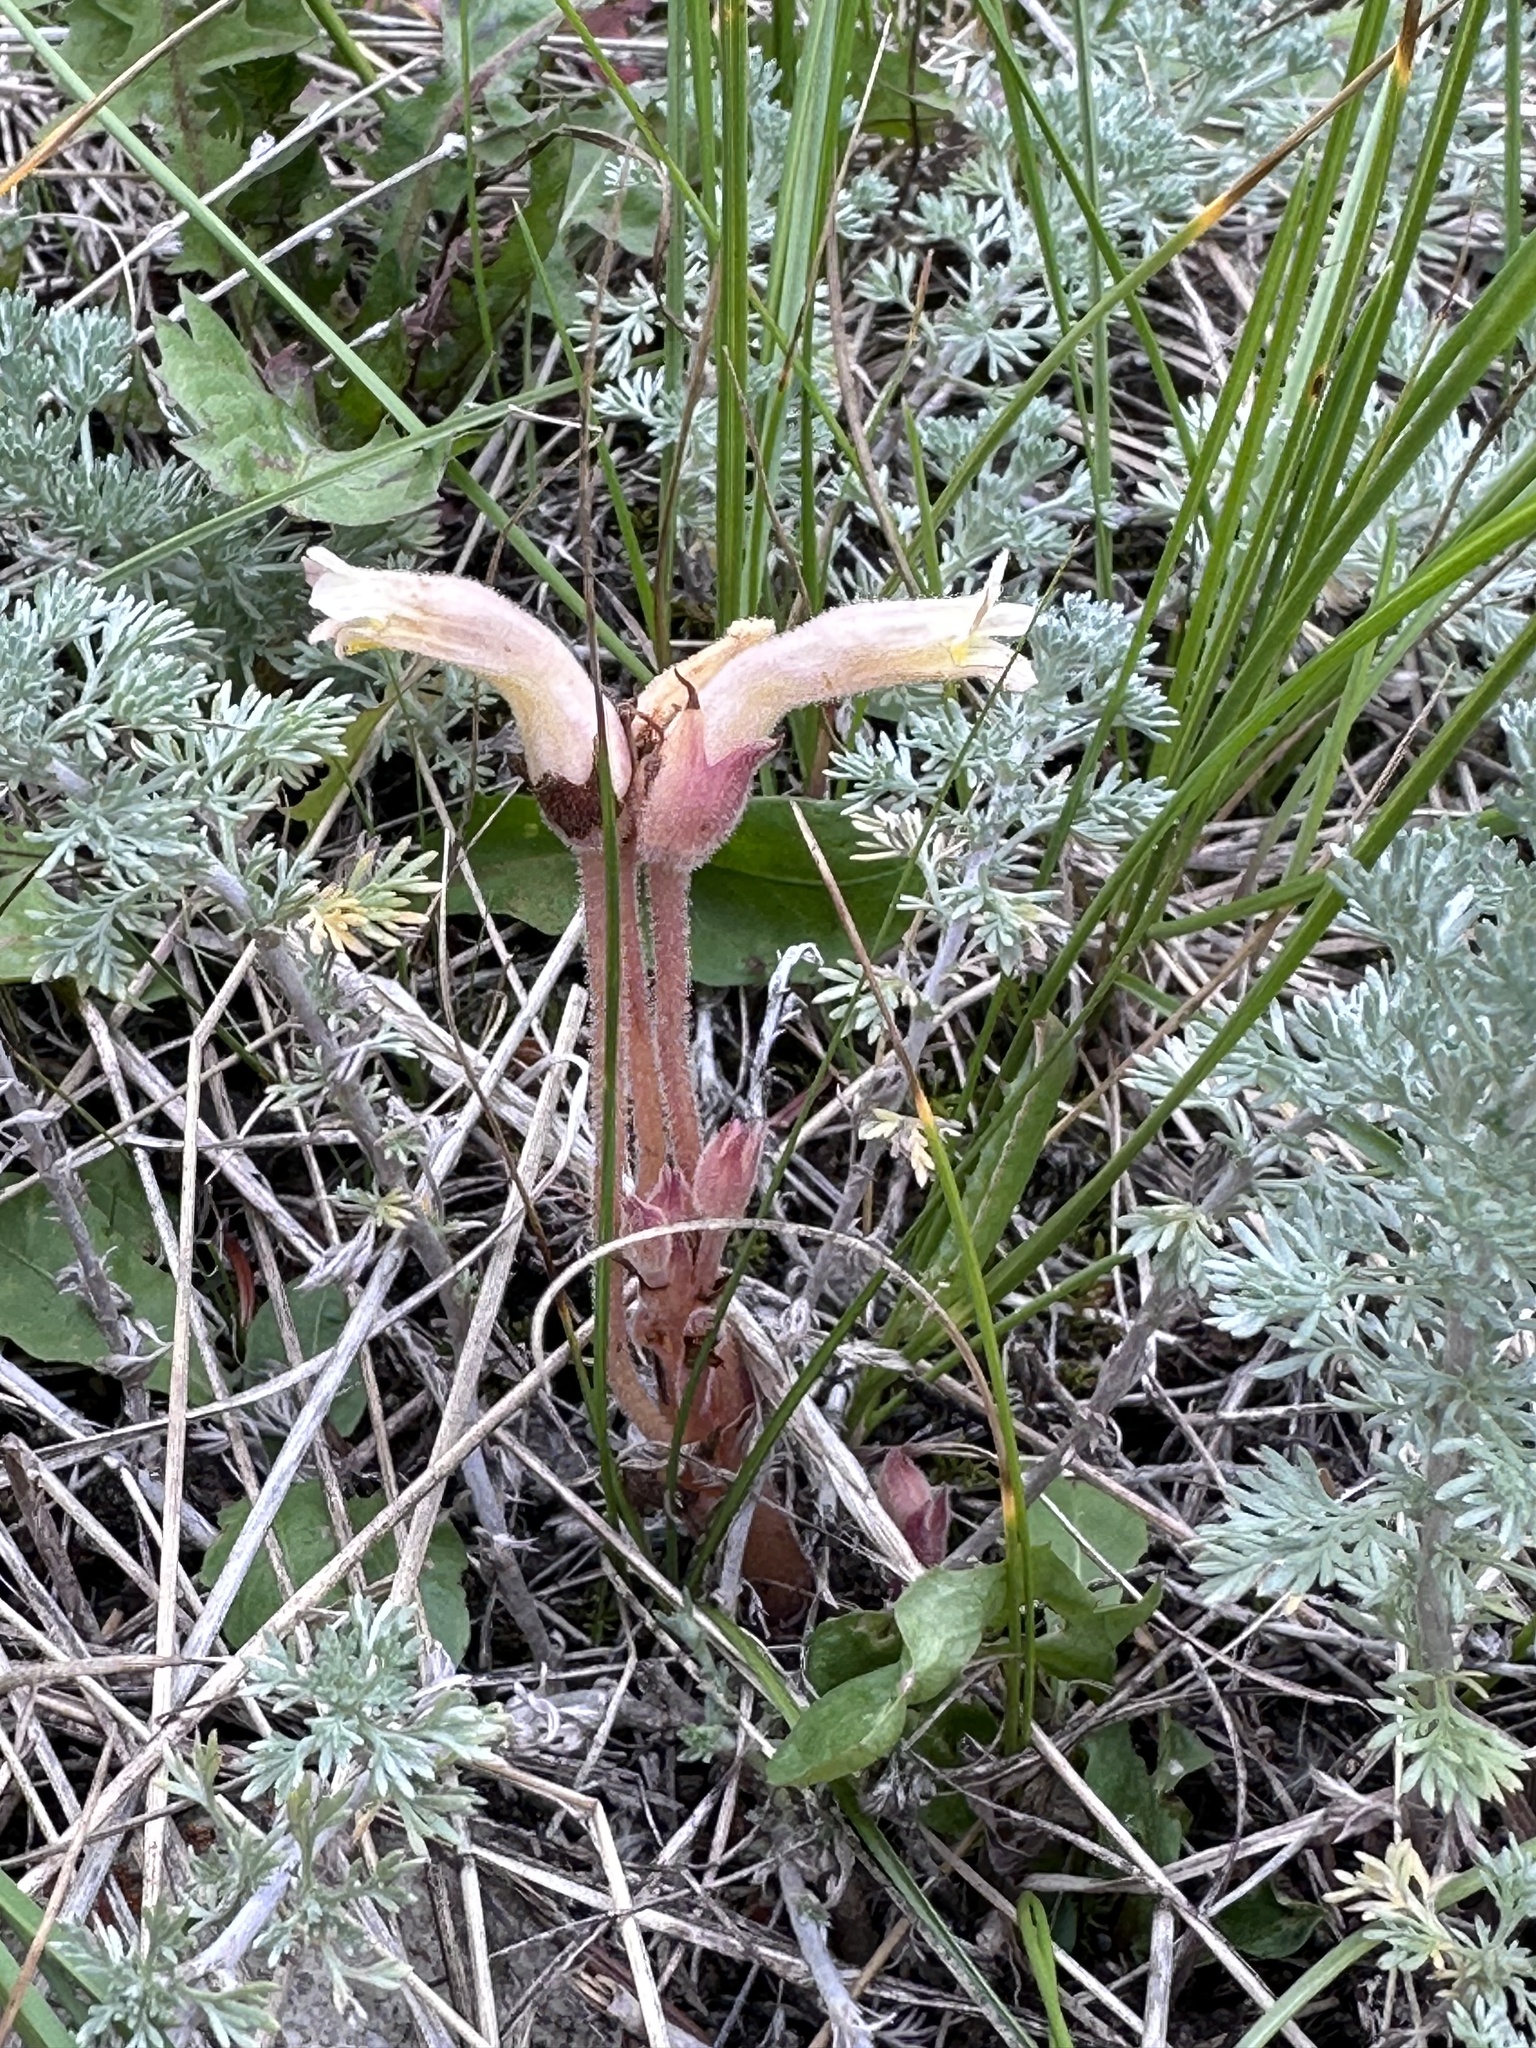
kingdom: Plantae
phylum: Tracheophyta
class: Magnoliopsida
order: Lamiales
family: Orobanchaceae
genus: Aphyllon
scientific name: Aphyllon fasciculatum
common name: Clustered broomrape
